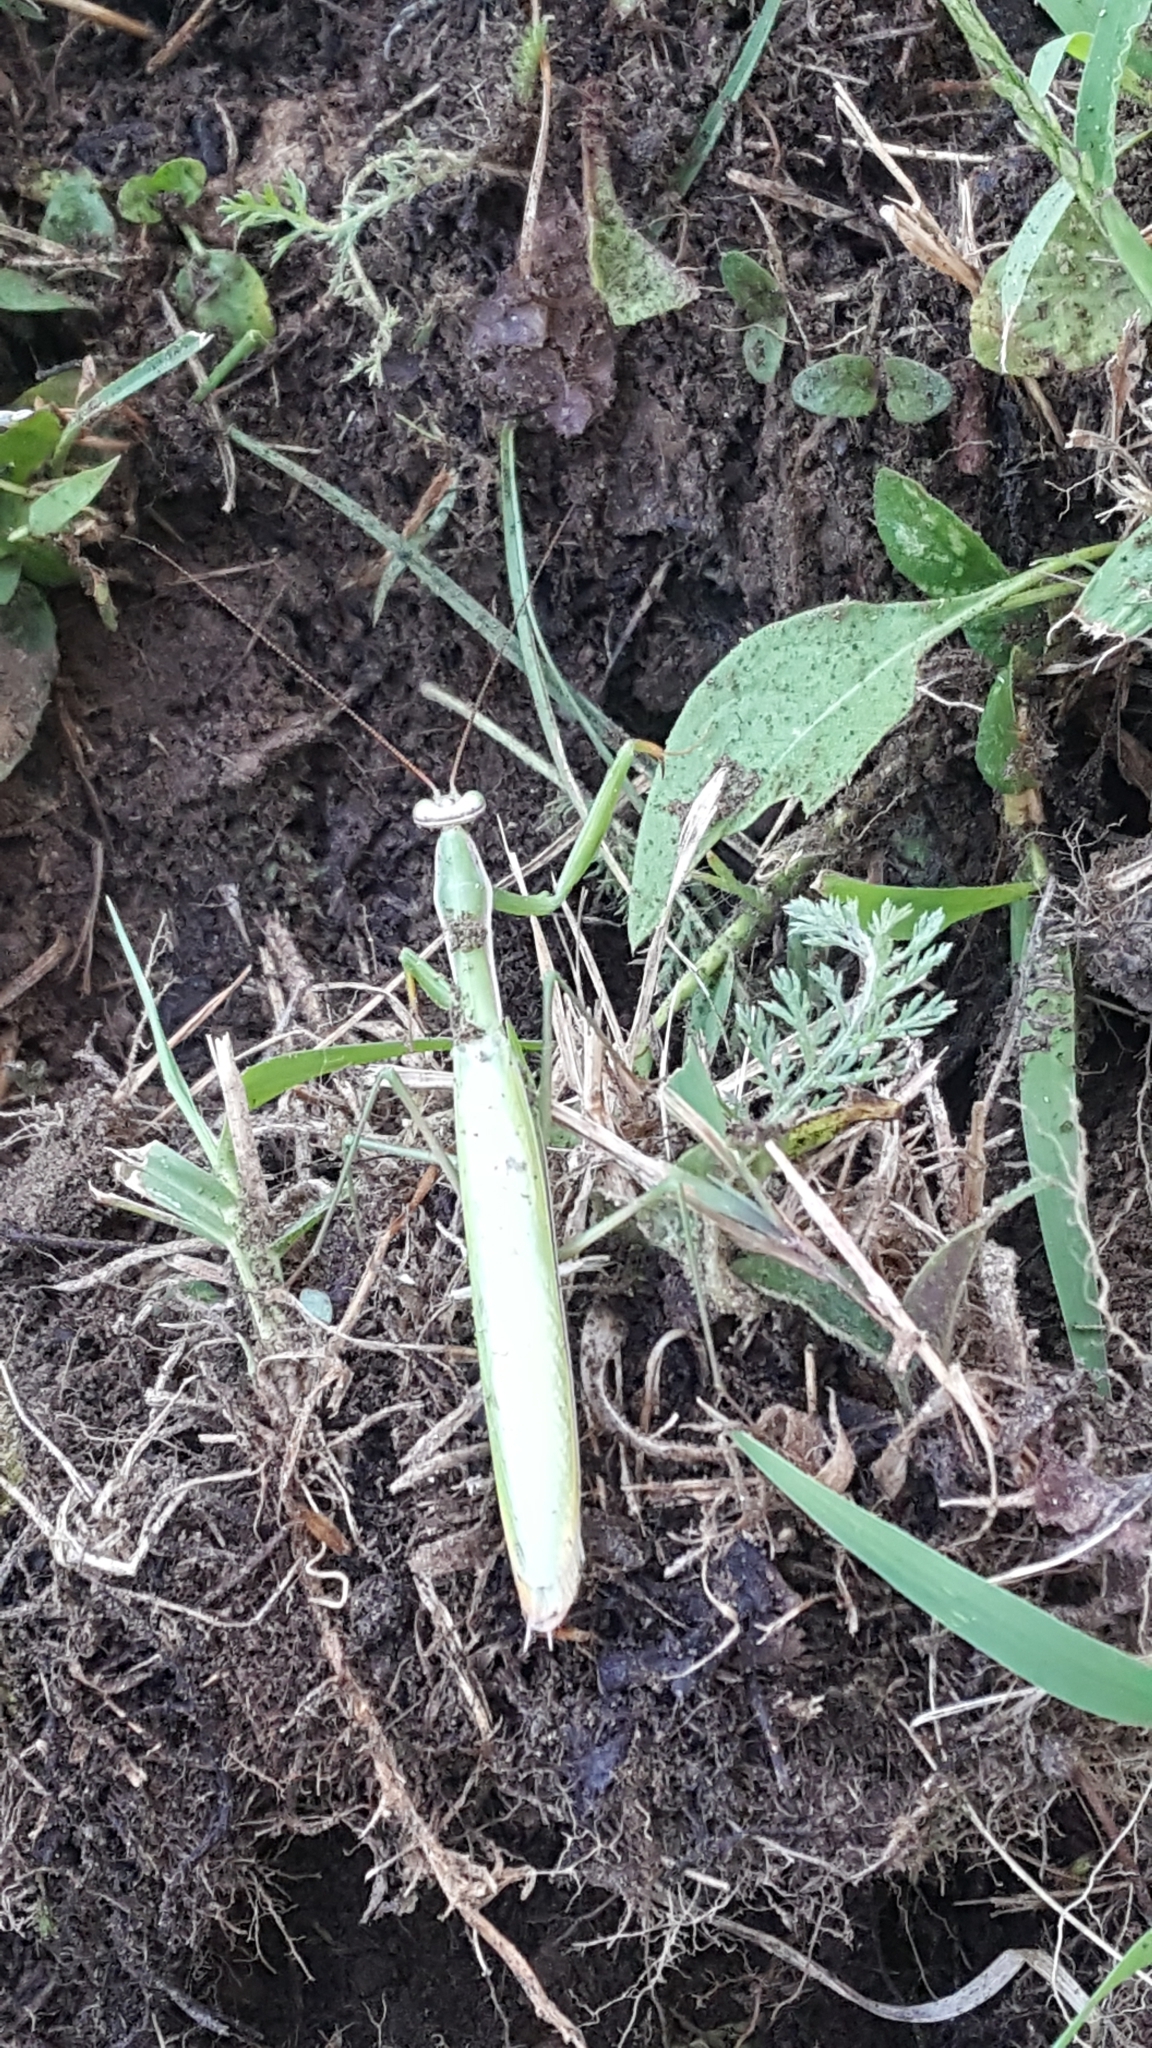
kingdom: Animalia
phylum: Arthropoda
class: Insecta
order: Mantodea
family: Mantidae
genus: Mantis
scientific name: Mantis religiosa
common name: Praying mantis
